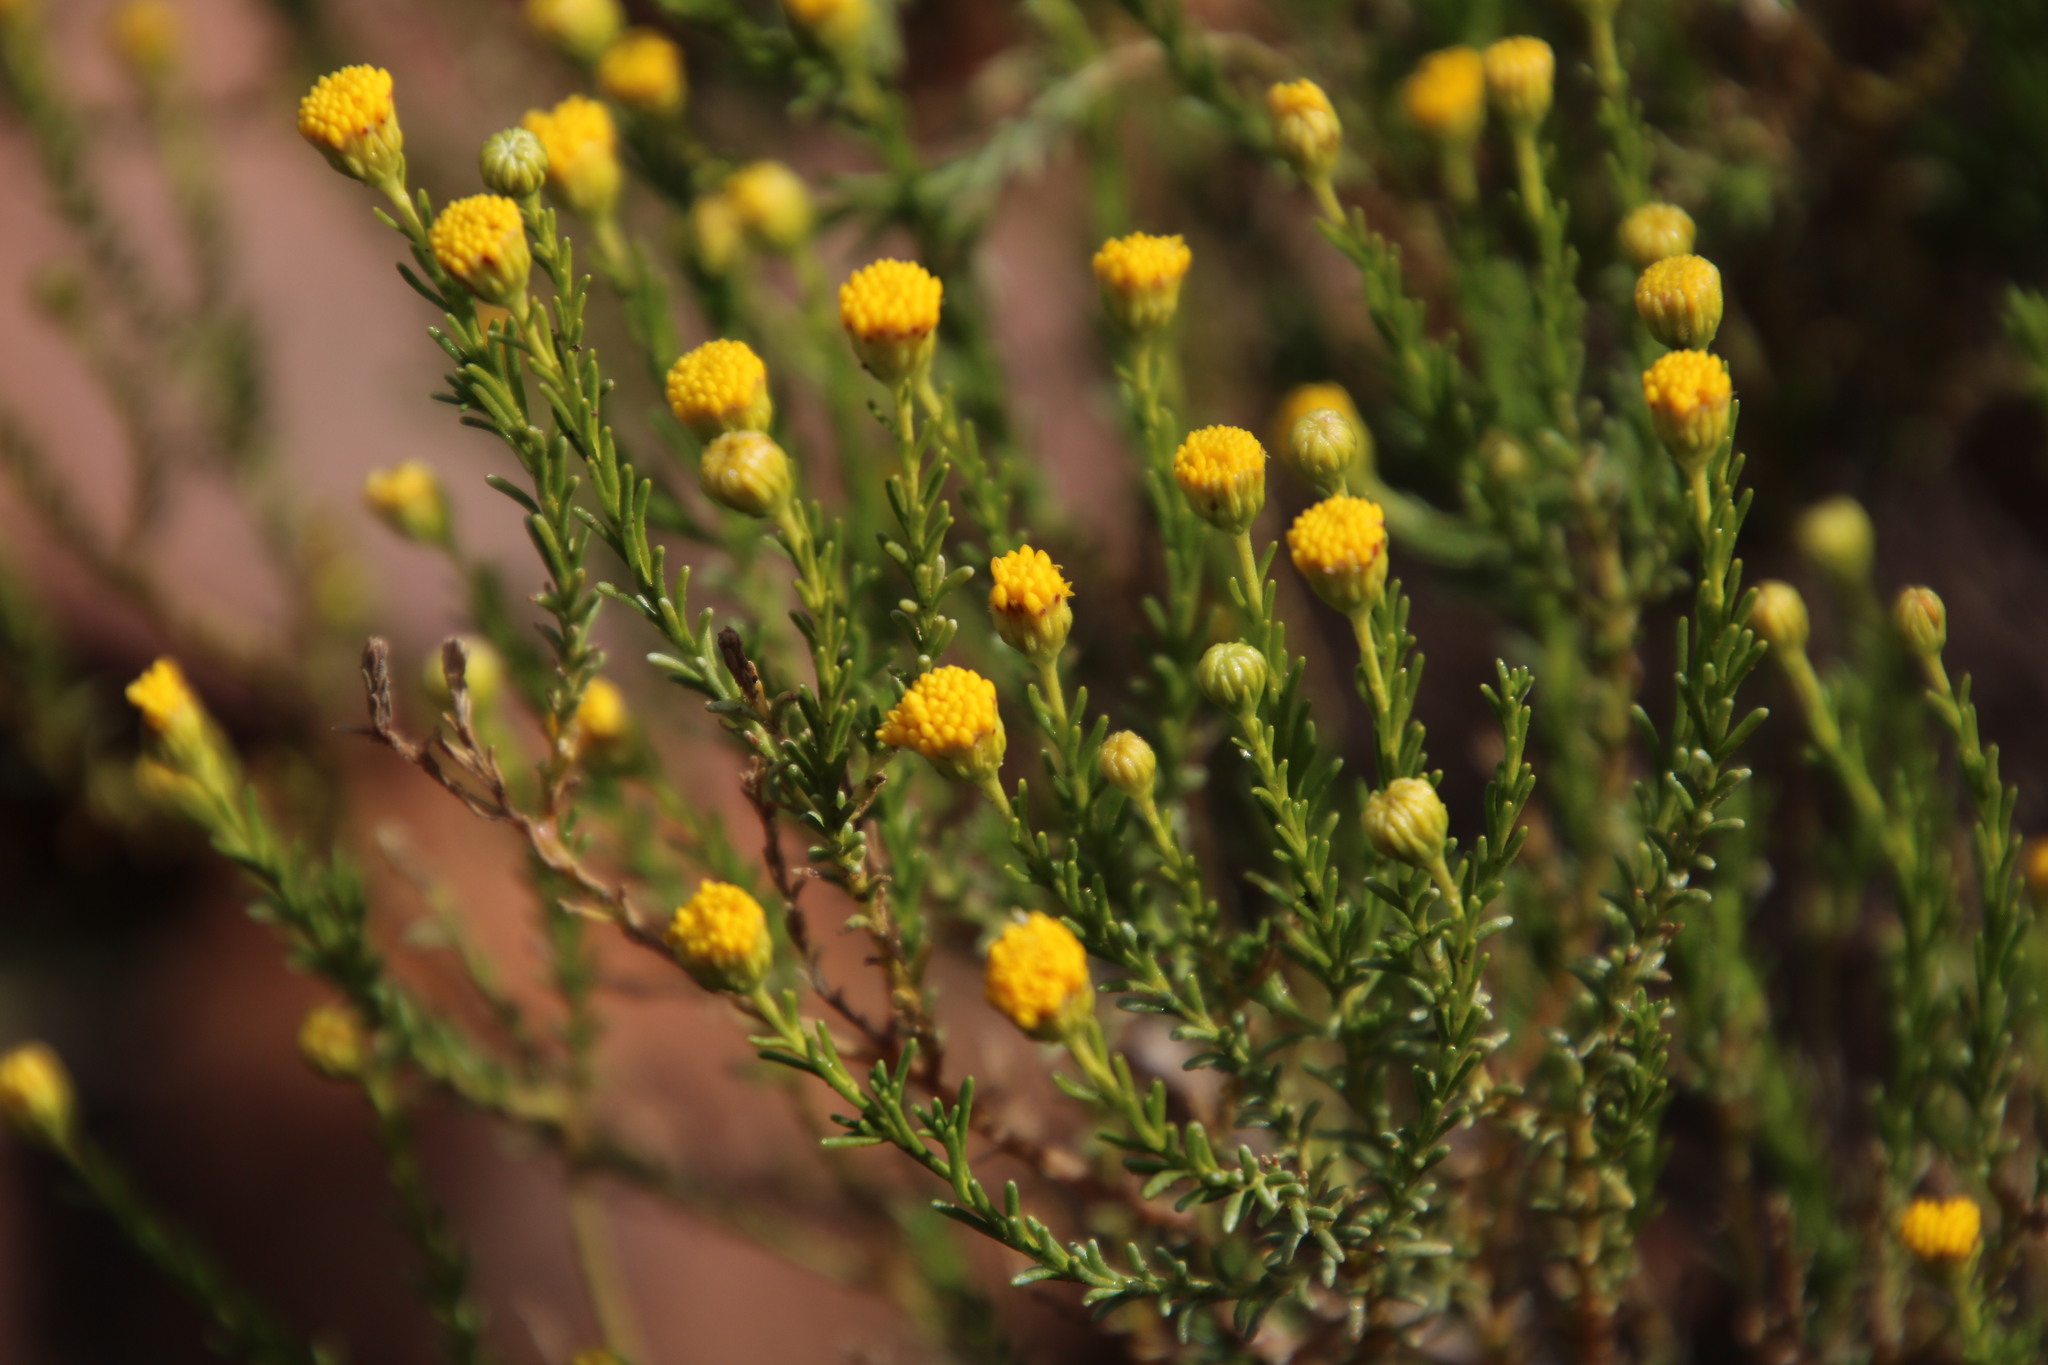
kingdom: Plantae
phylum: Tracheophyta
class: Magnoliopsida
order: Asterales
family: Asteraceae
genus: Chrysocoma
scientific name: Chrysocoma ciliata
